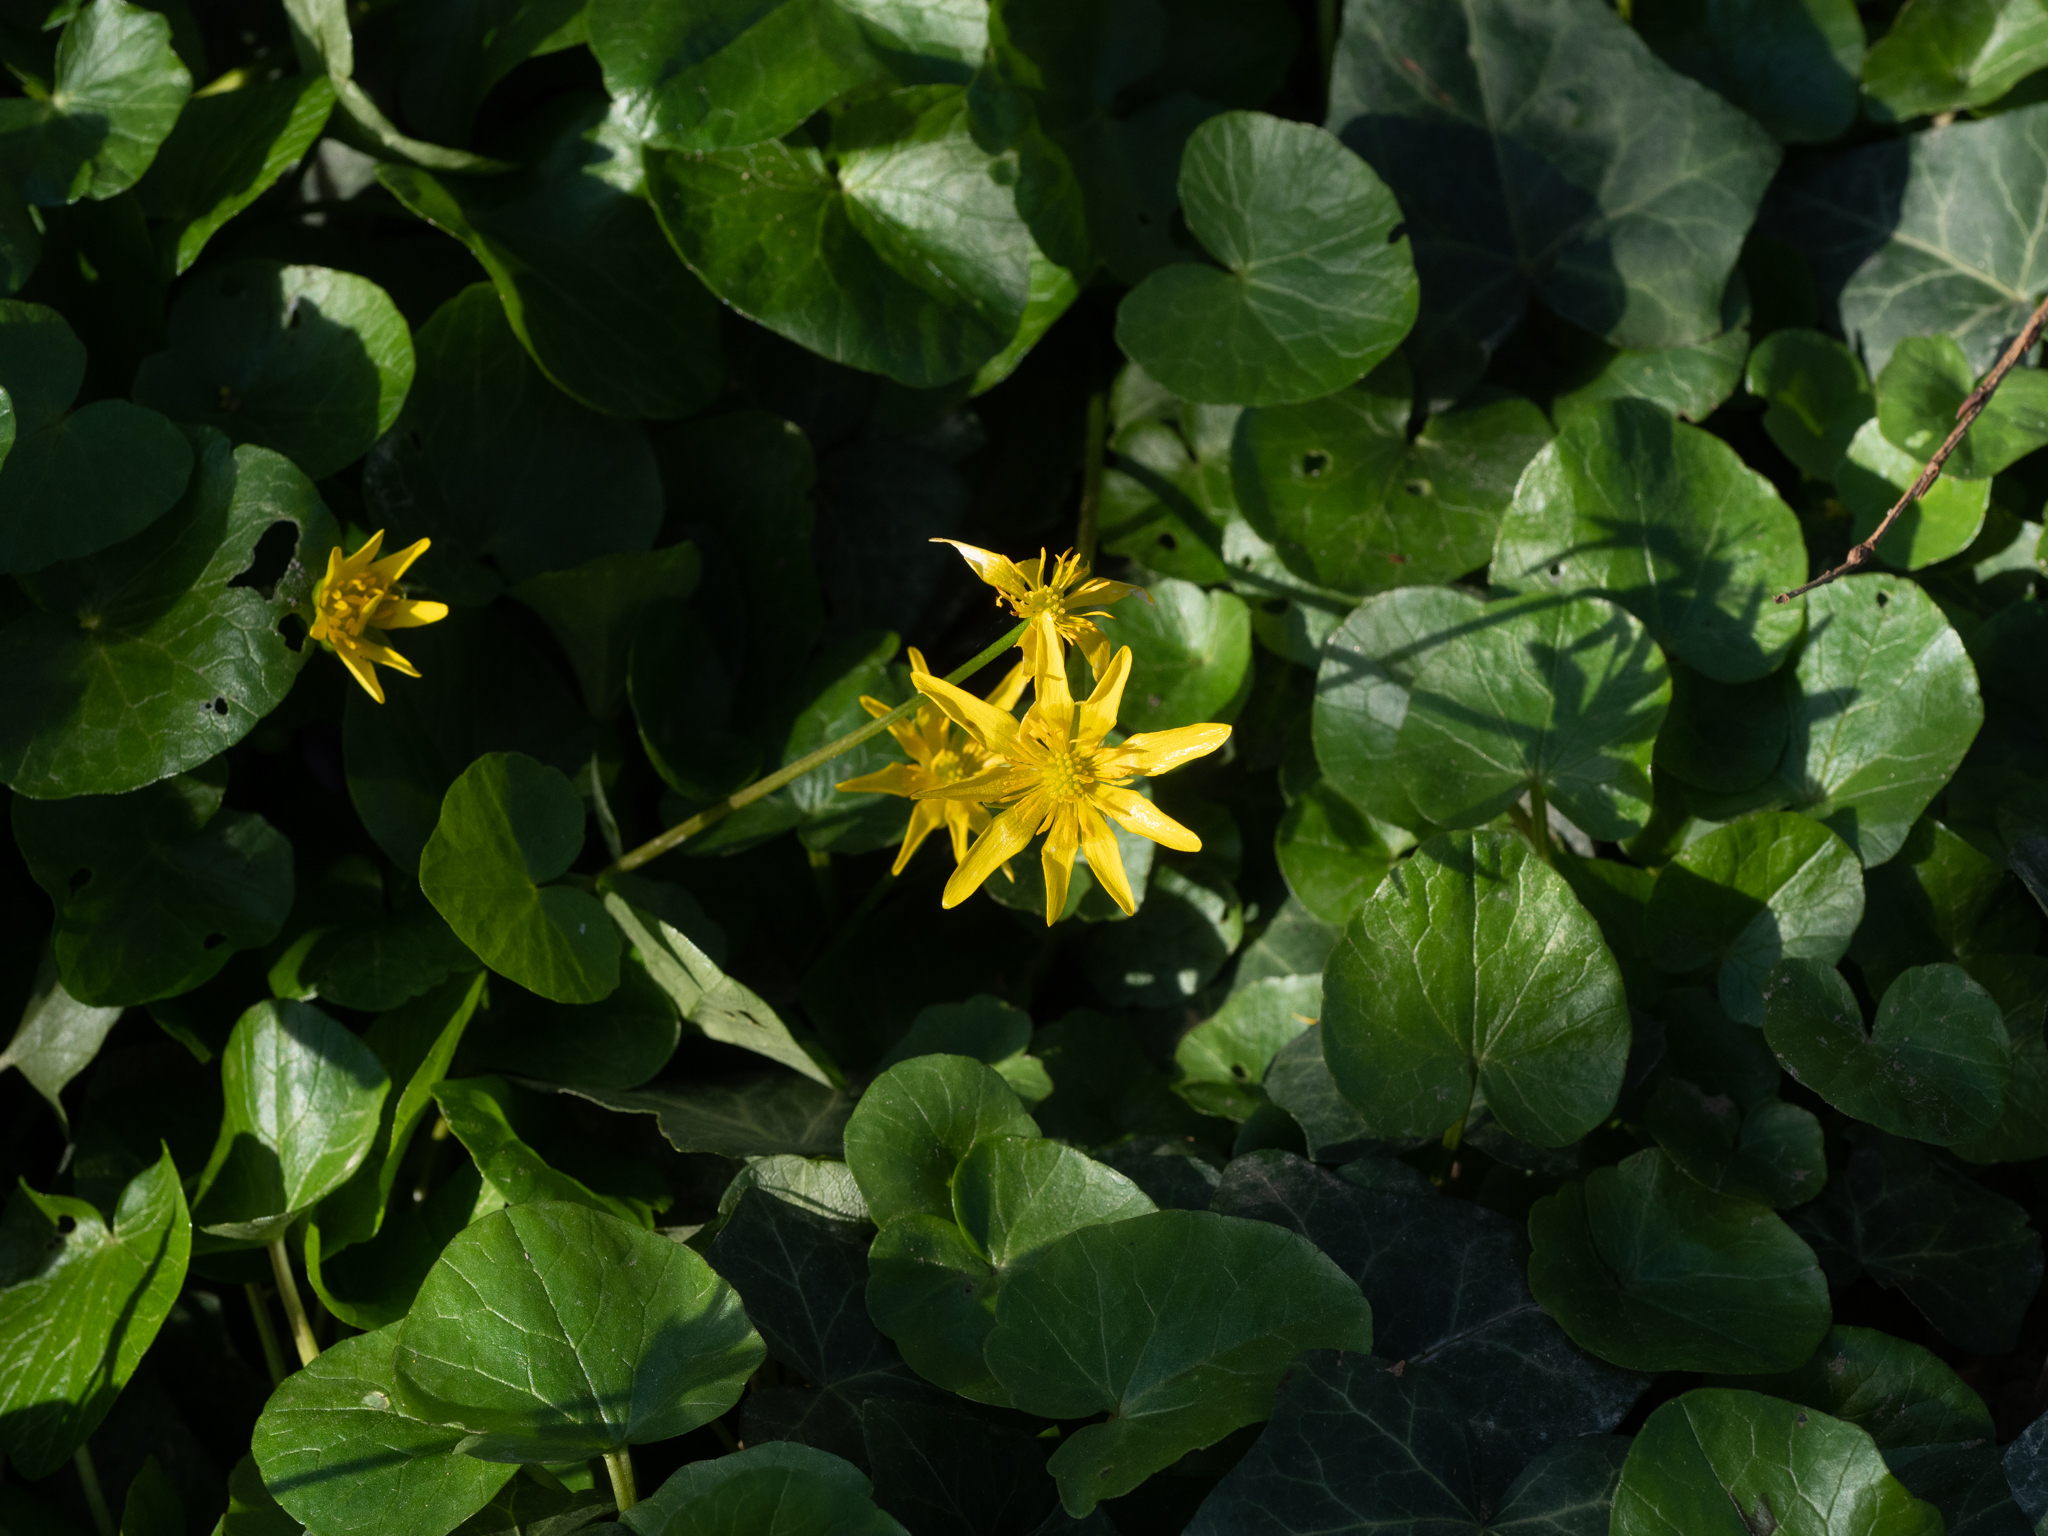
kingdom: Plantae
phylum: Tracheophyta
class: Magnoliopsida
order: Ranunculales
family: Ranunculaceae
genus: Ficaria
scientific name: Ficaria verna
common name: Lesser celandine
